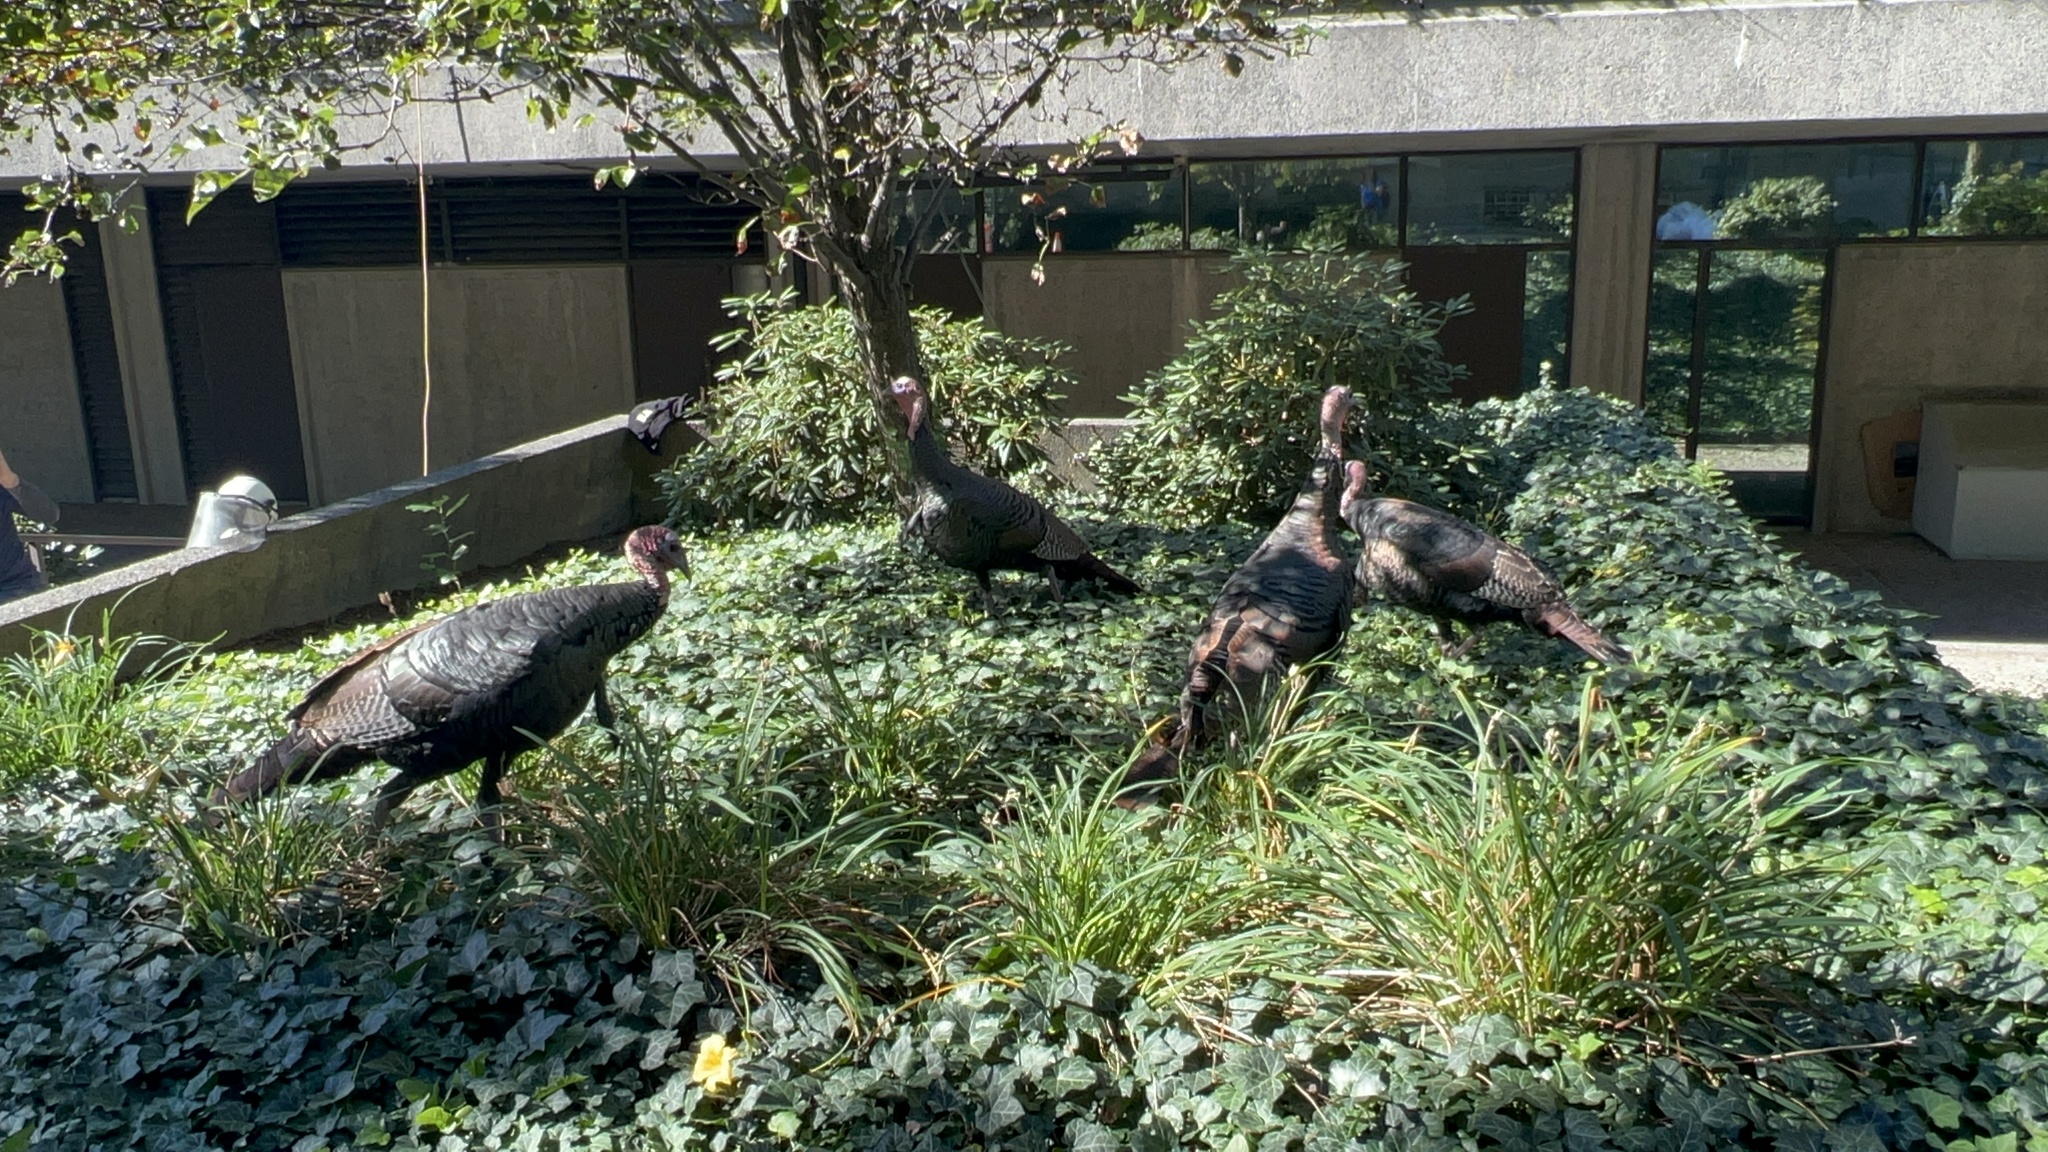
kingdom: Animalia
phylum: Chordata
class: Aves
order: Galliformes
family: Phasianidae
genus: Meleagris
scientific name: Meleagris gallopavo
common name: Wild turkey
